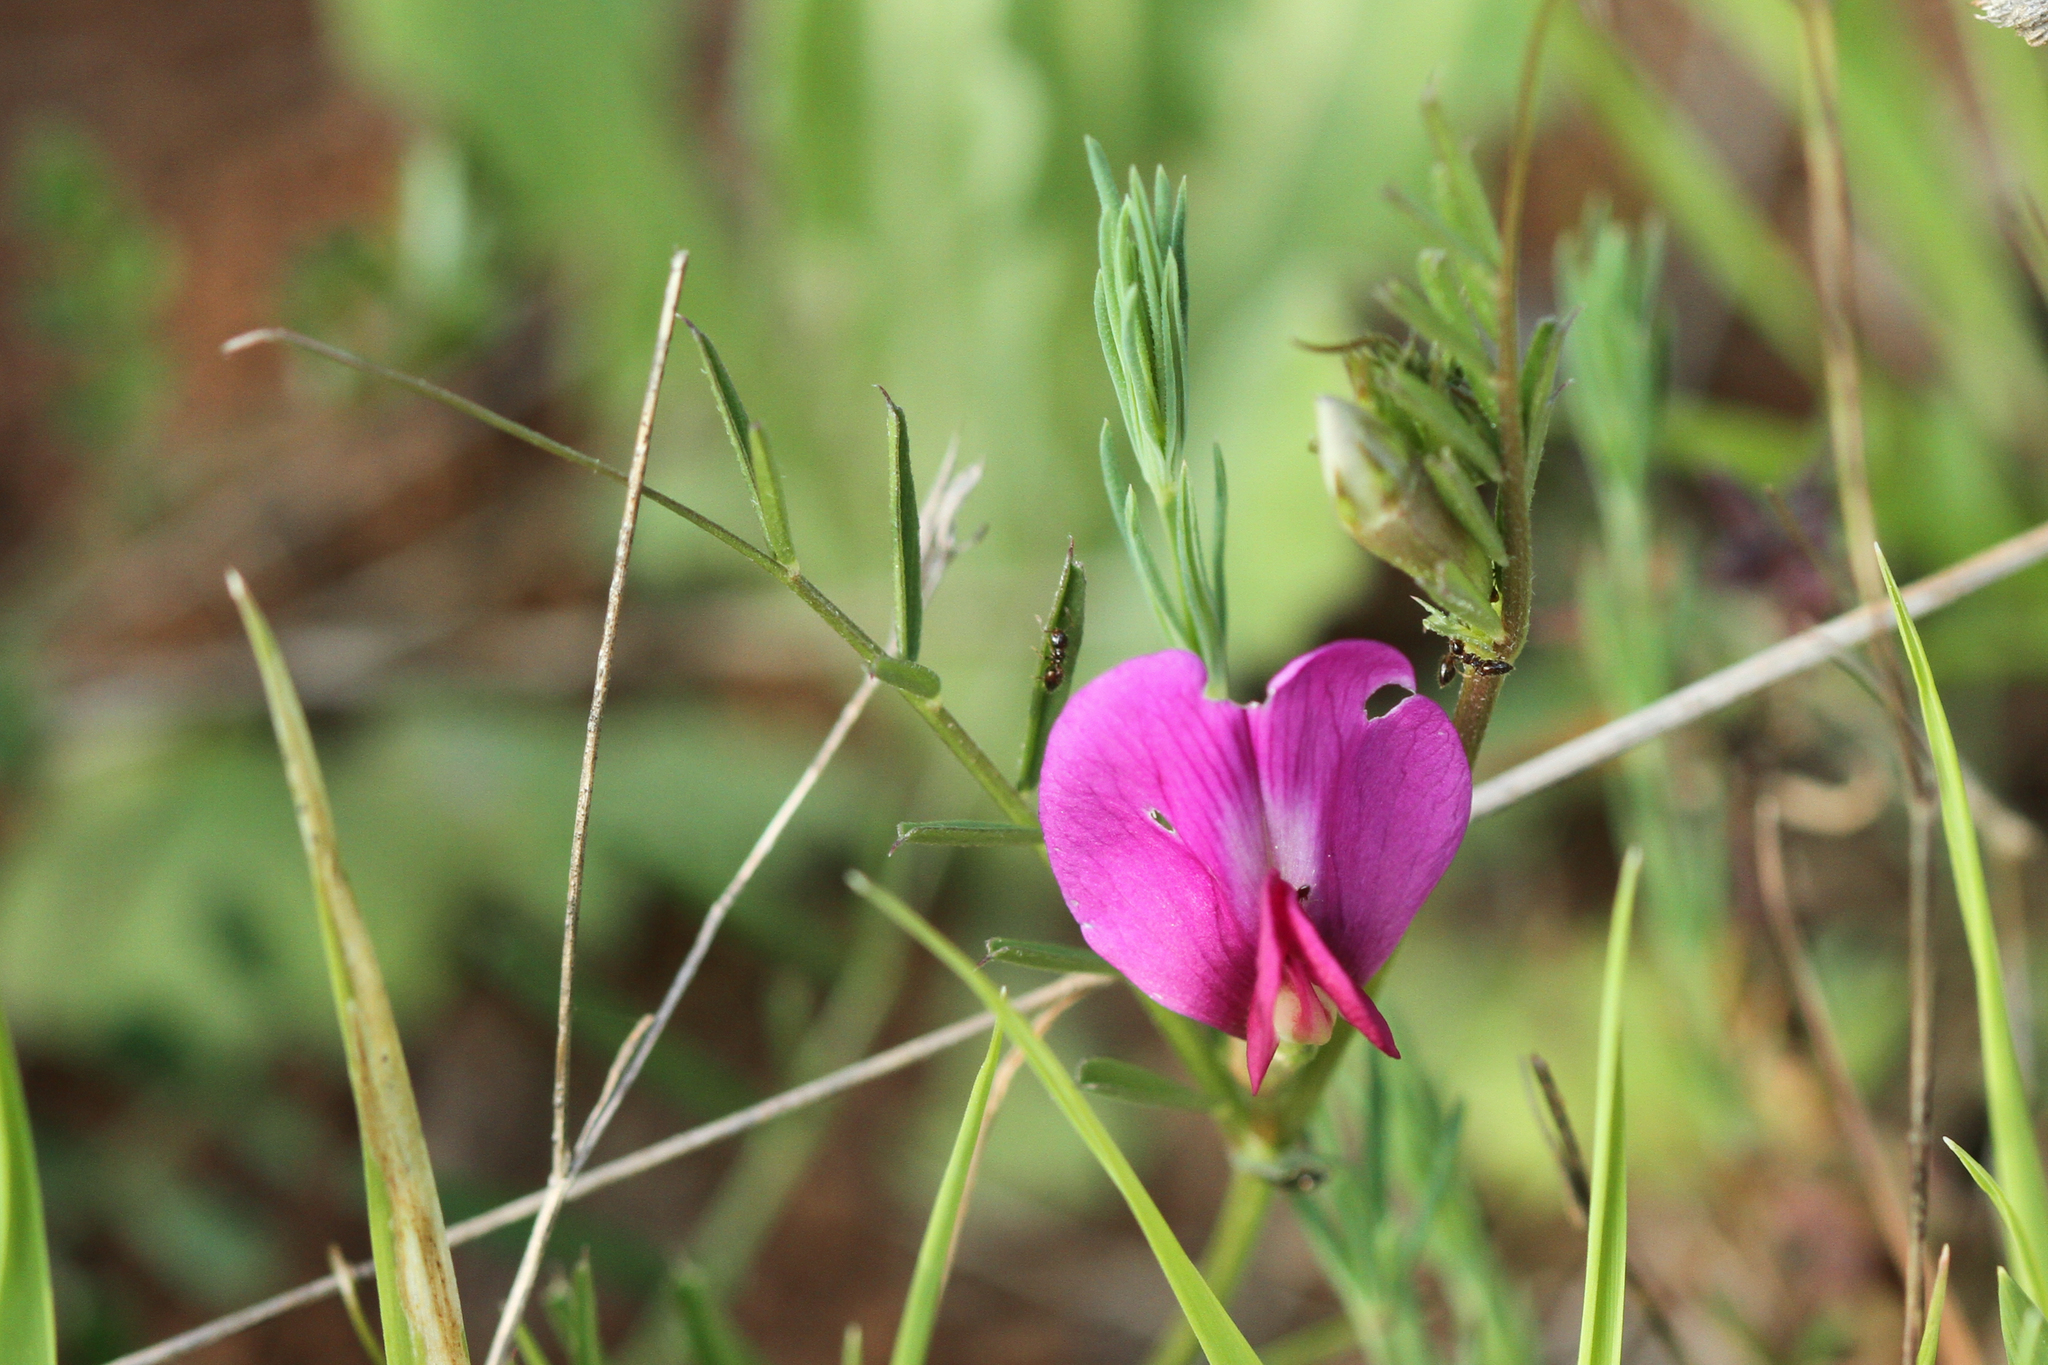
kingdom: Plantae
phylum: Tracheophyta
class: Magnoliopsida
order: Fabales
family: Fabaceae
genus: Vicia
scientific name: Vicia sativa
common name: Garden vetch
